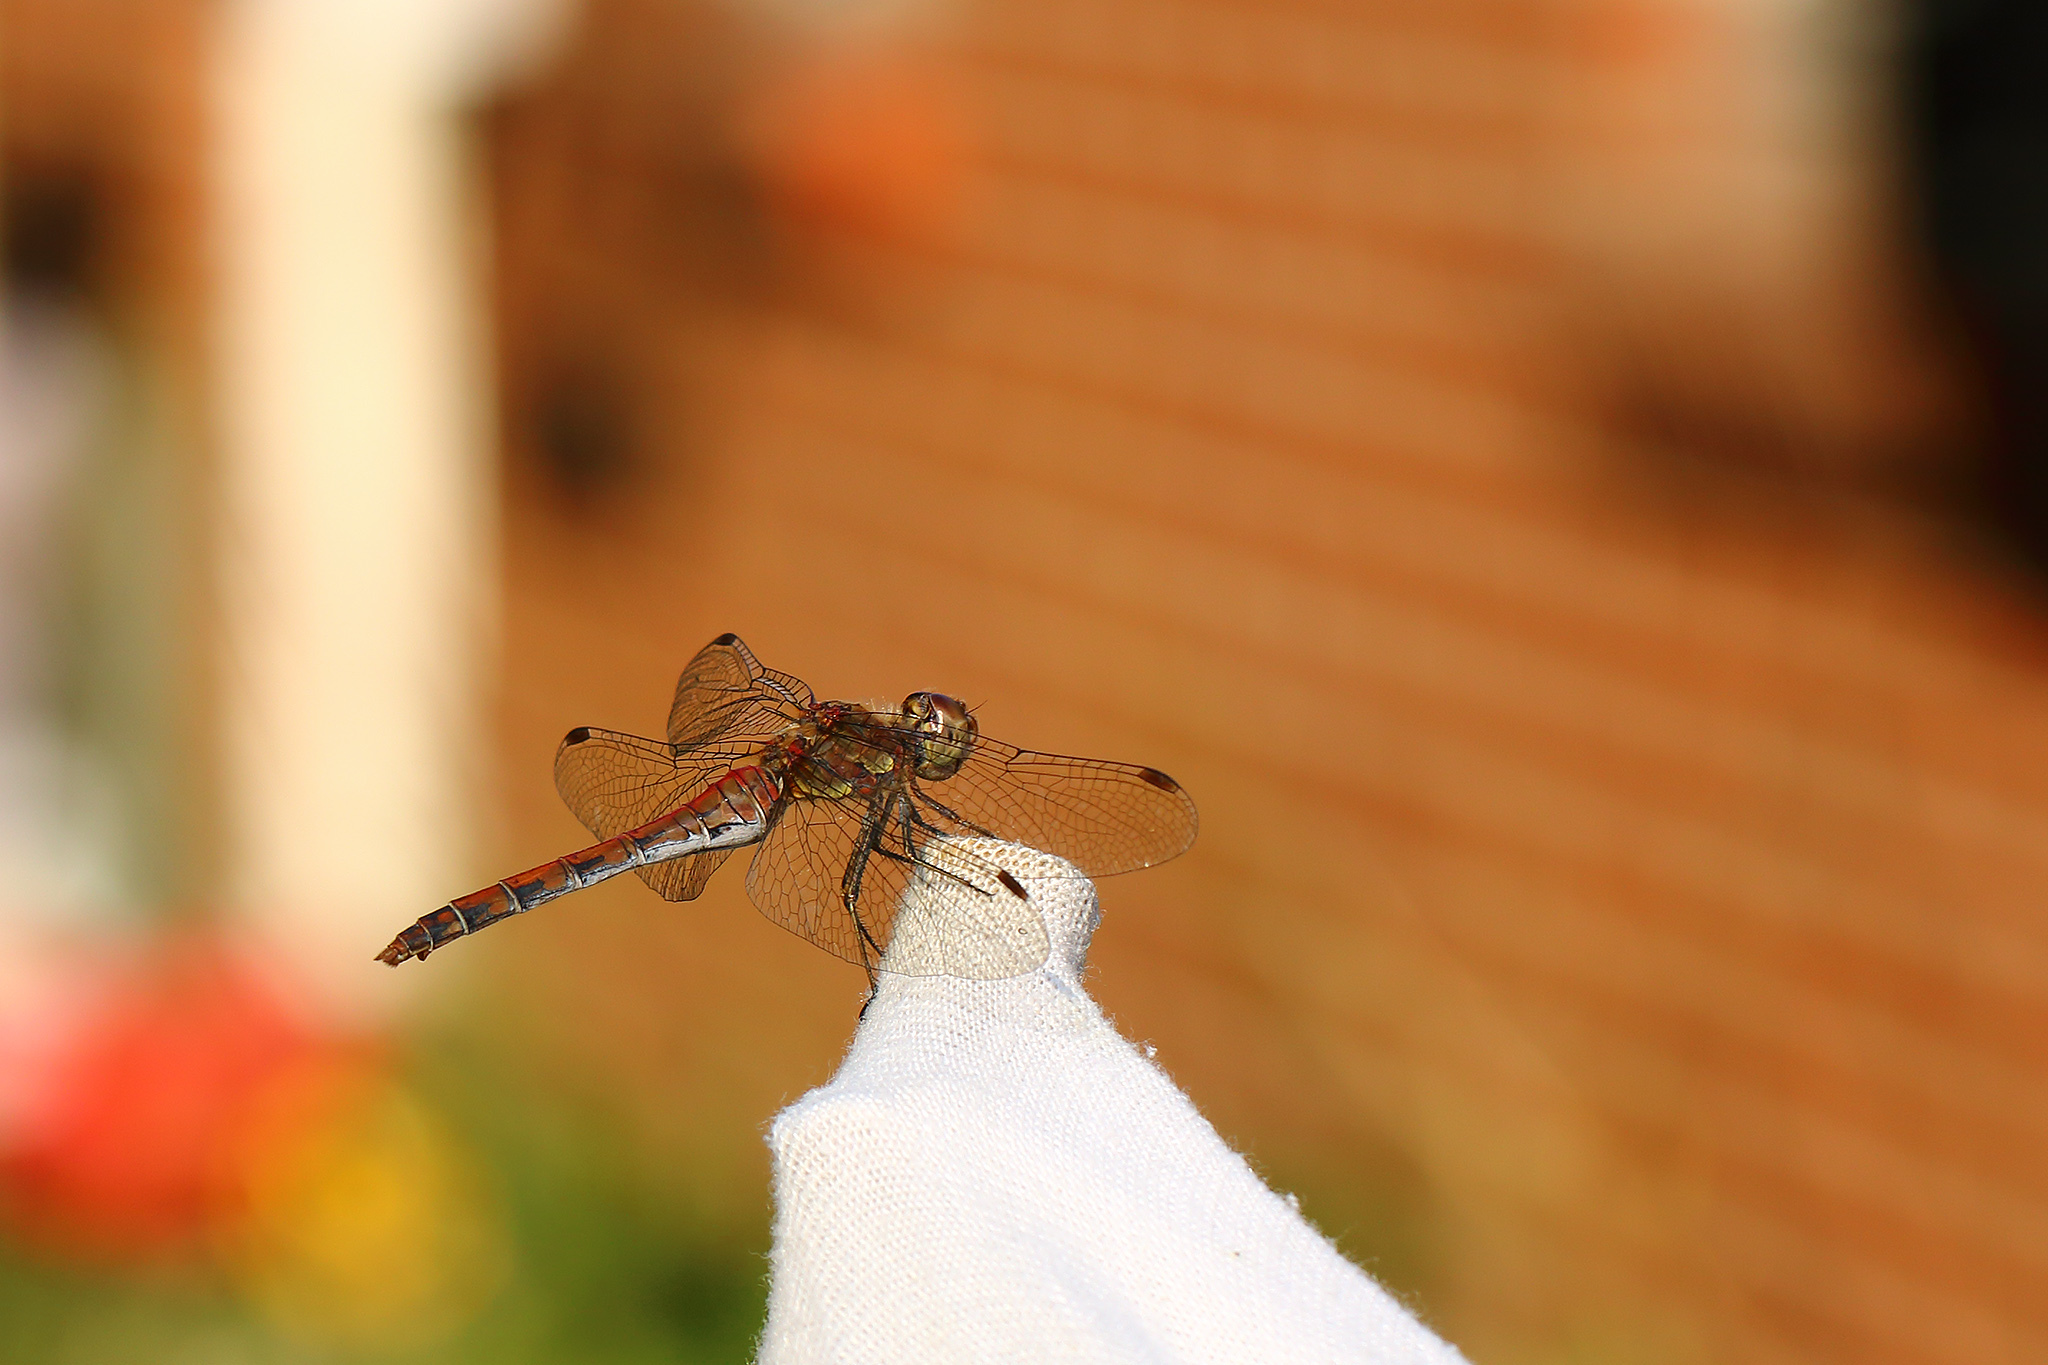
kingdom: Animalia
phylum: Arthropoda
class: Insecta
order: Odonata
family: Libellulidae
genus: Sympetrum
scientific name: Sympetrum striolatum
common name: Common darter
